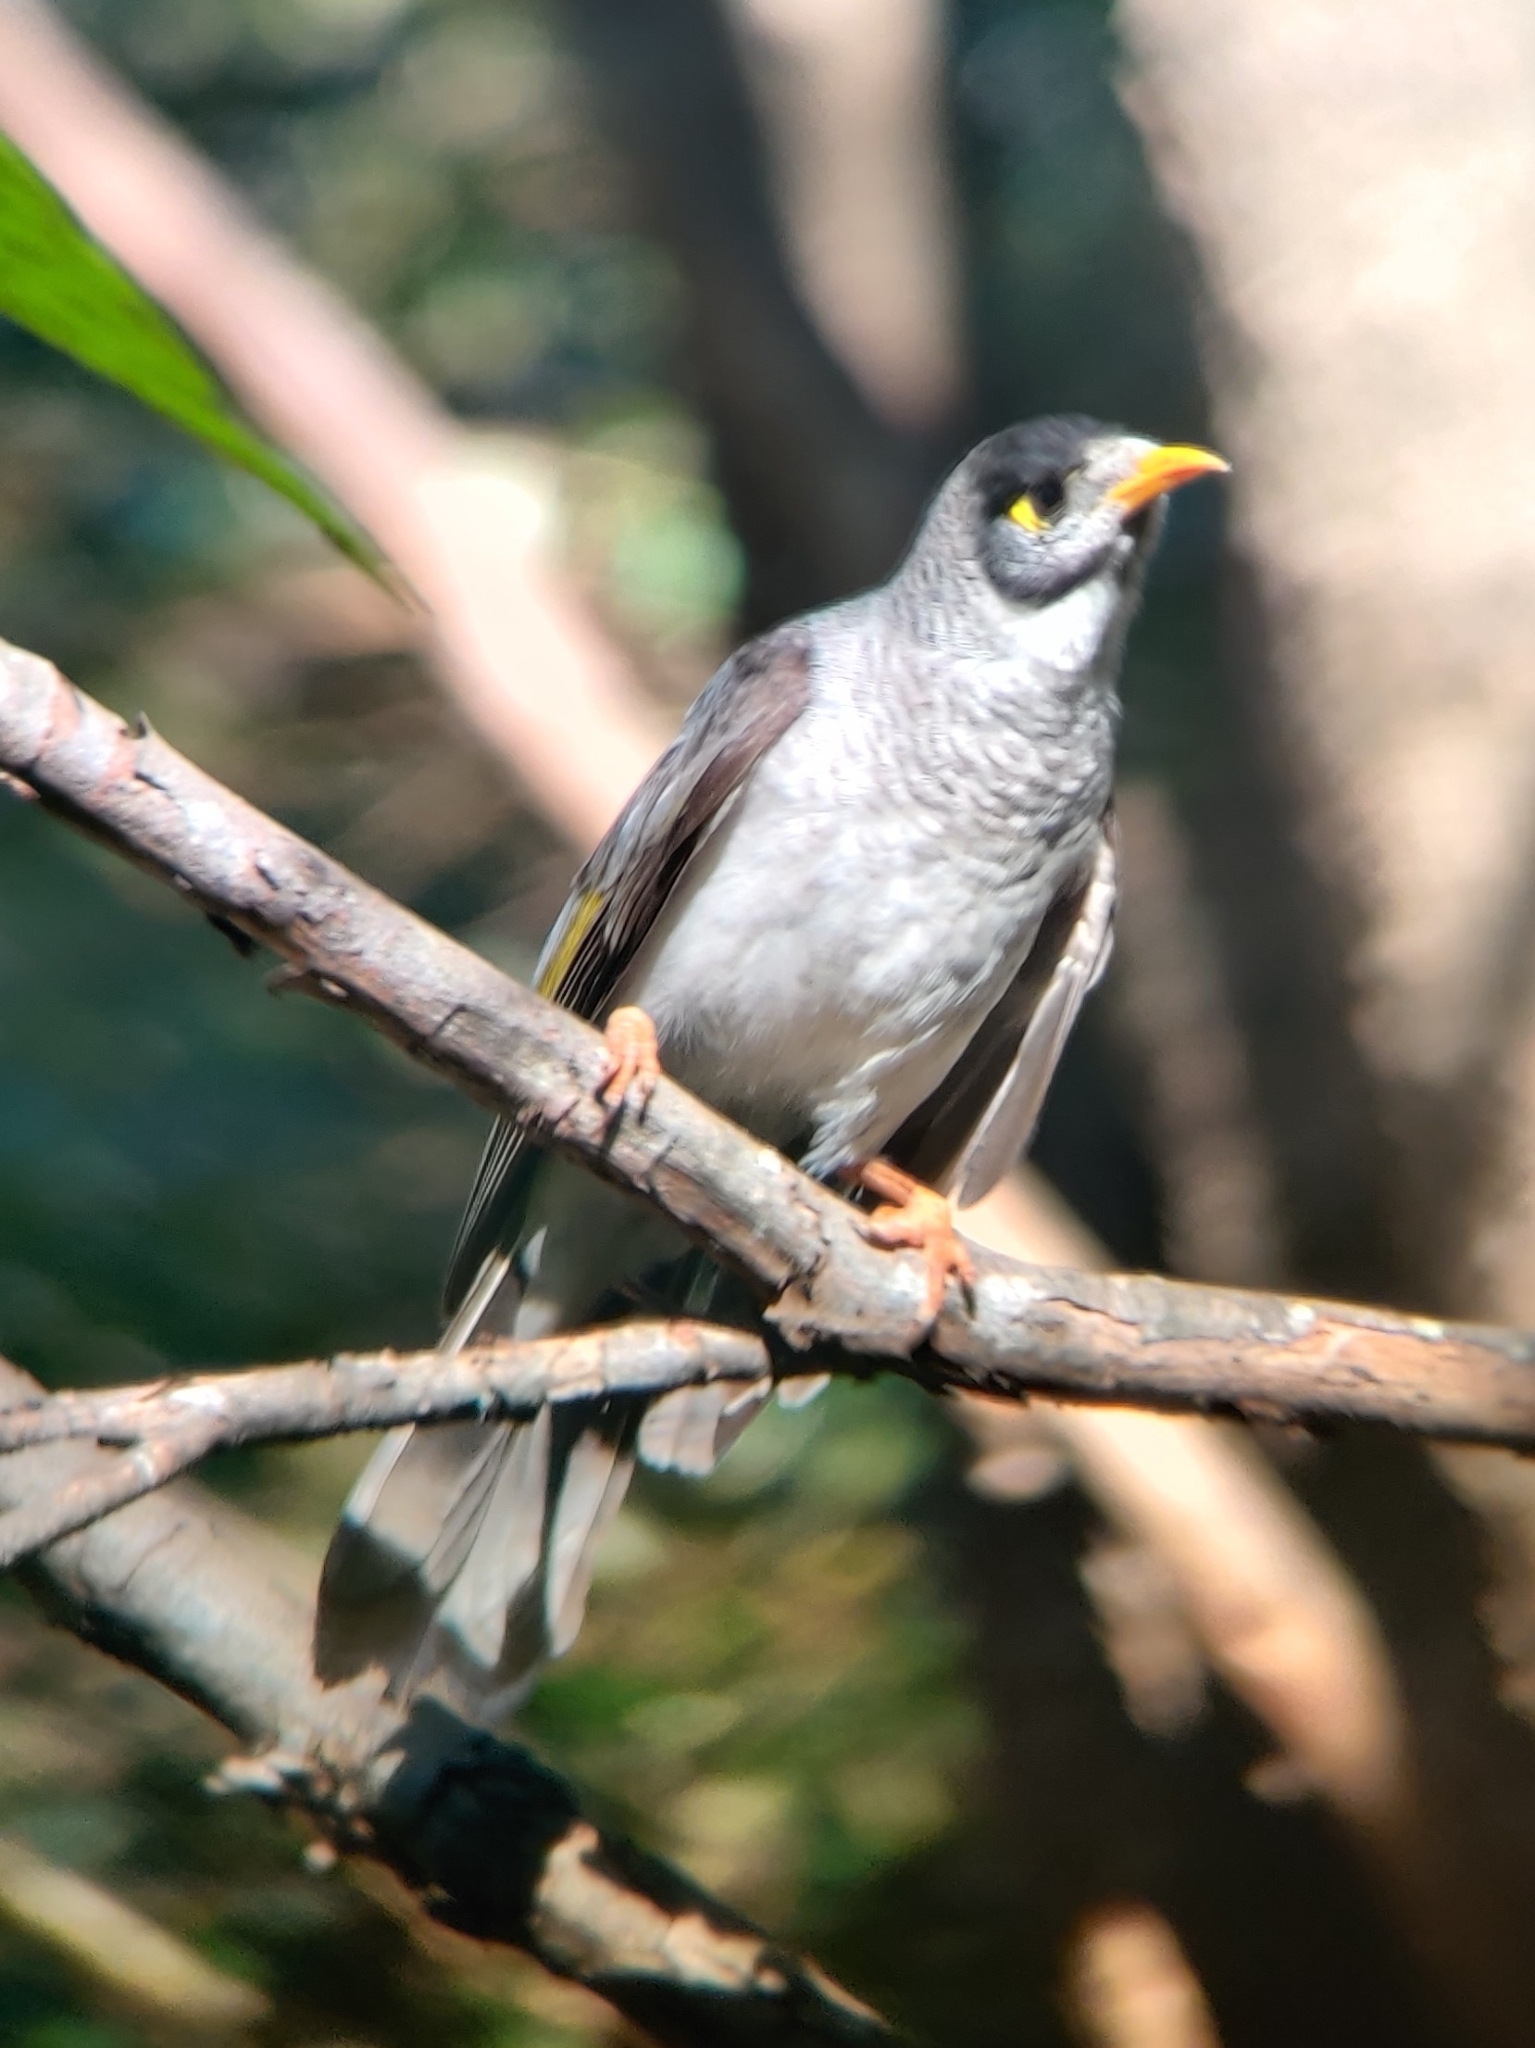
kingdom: Animalia
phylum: Chordata
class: Aves
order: Passeriformes
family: Meliphagidae
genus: Manorina
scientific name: Manorina melanocephala
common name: Noisy miner
